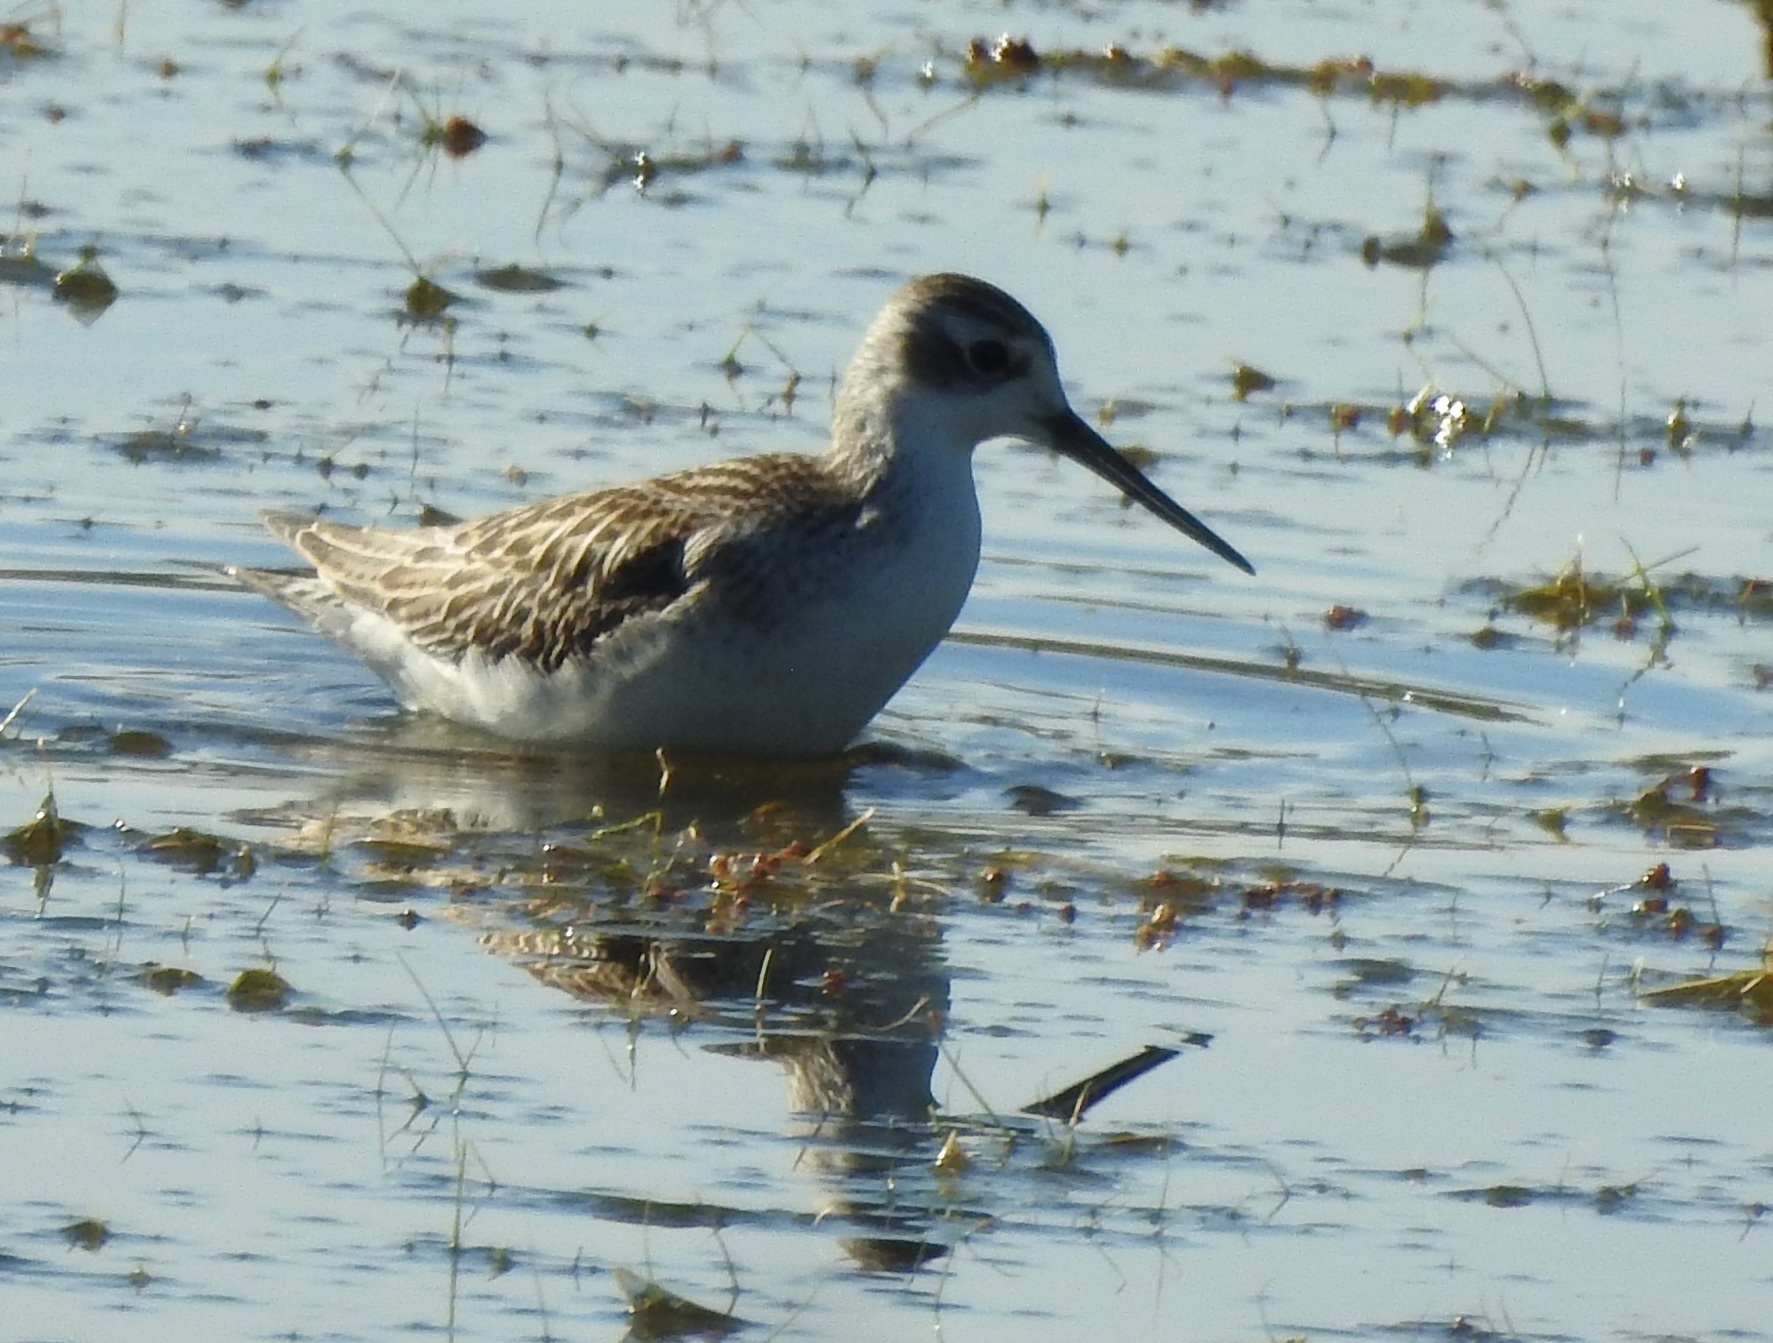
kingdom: Animalia
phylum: Chordata
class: Aves
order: Charadriiformes
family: Scolopacidae
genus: Tringa
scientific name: Tringa stagnatilis
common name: Marsh sandpiper
